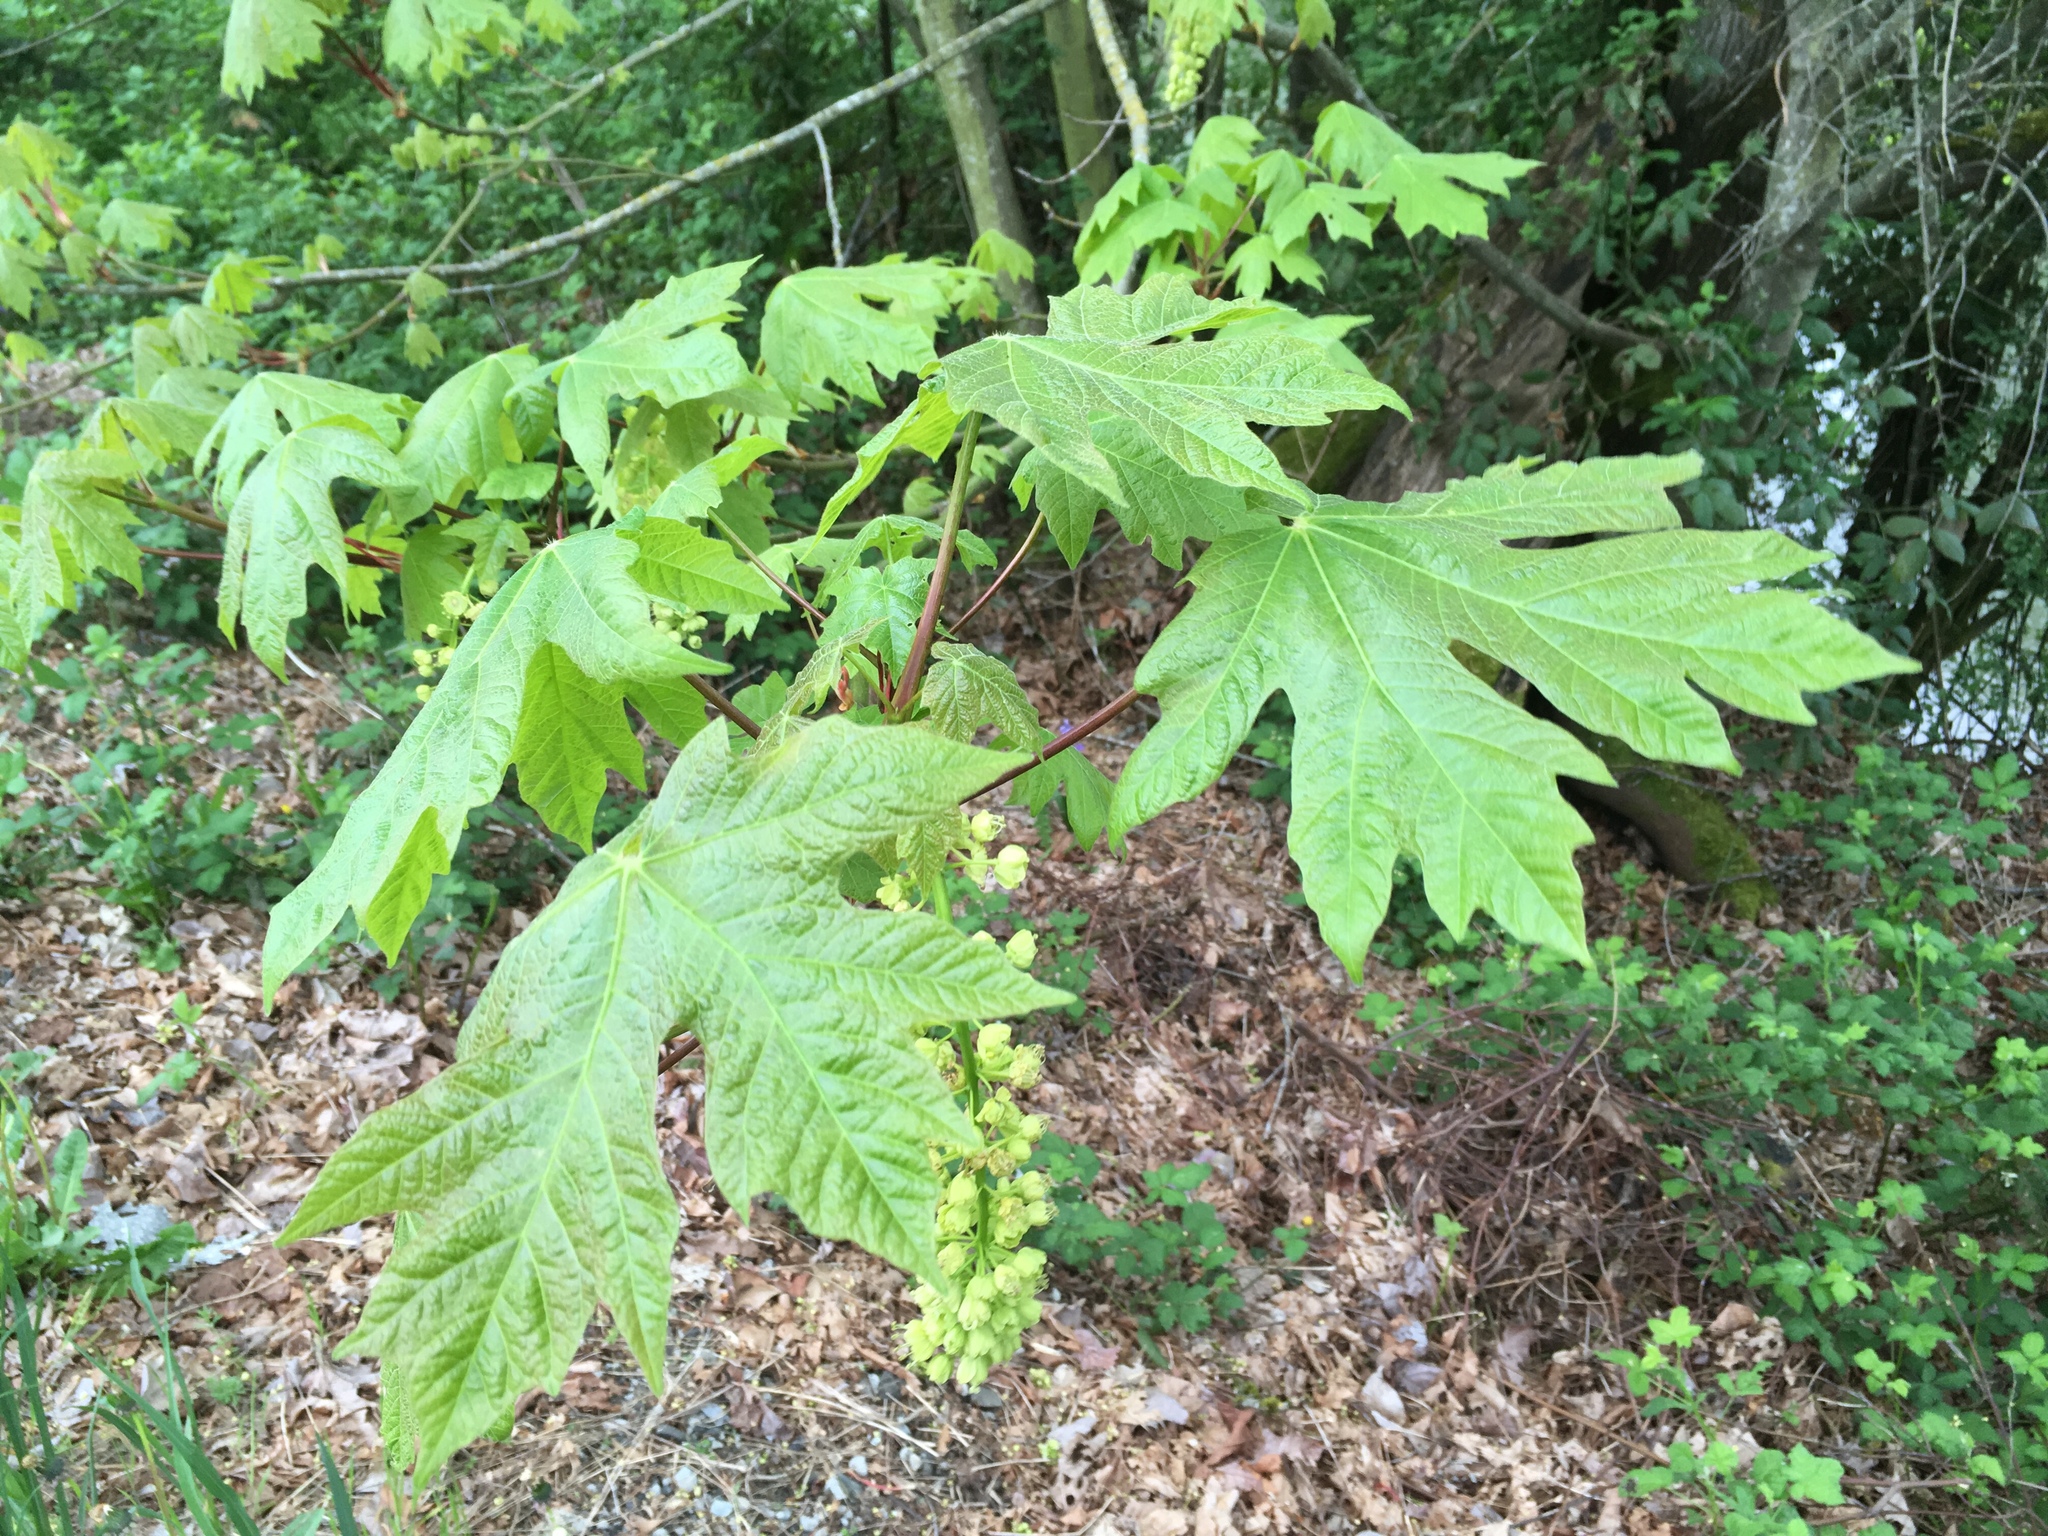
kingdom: Plantae
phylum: Tracheophyta
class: Magnoliopsida
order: Sapindales
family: Sapindaceae
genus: Acer
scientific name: Acer macrophyllum
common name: Oregon maple
